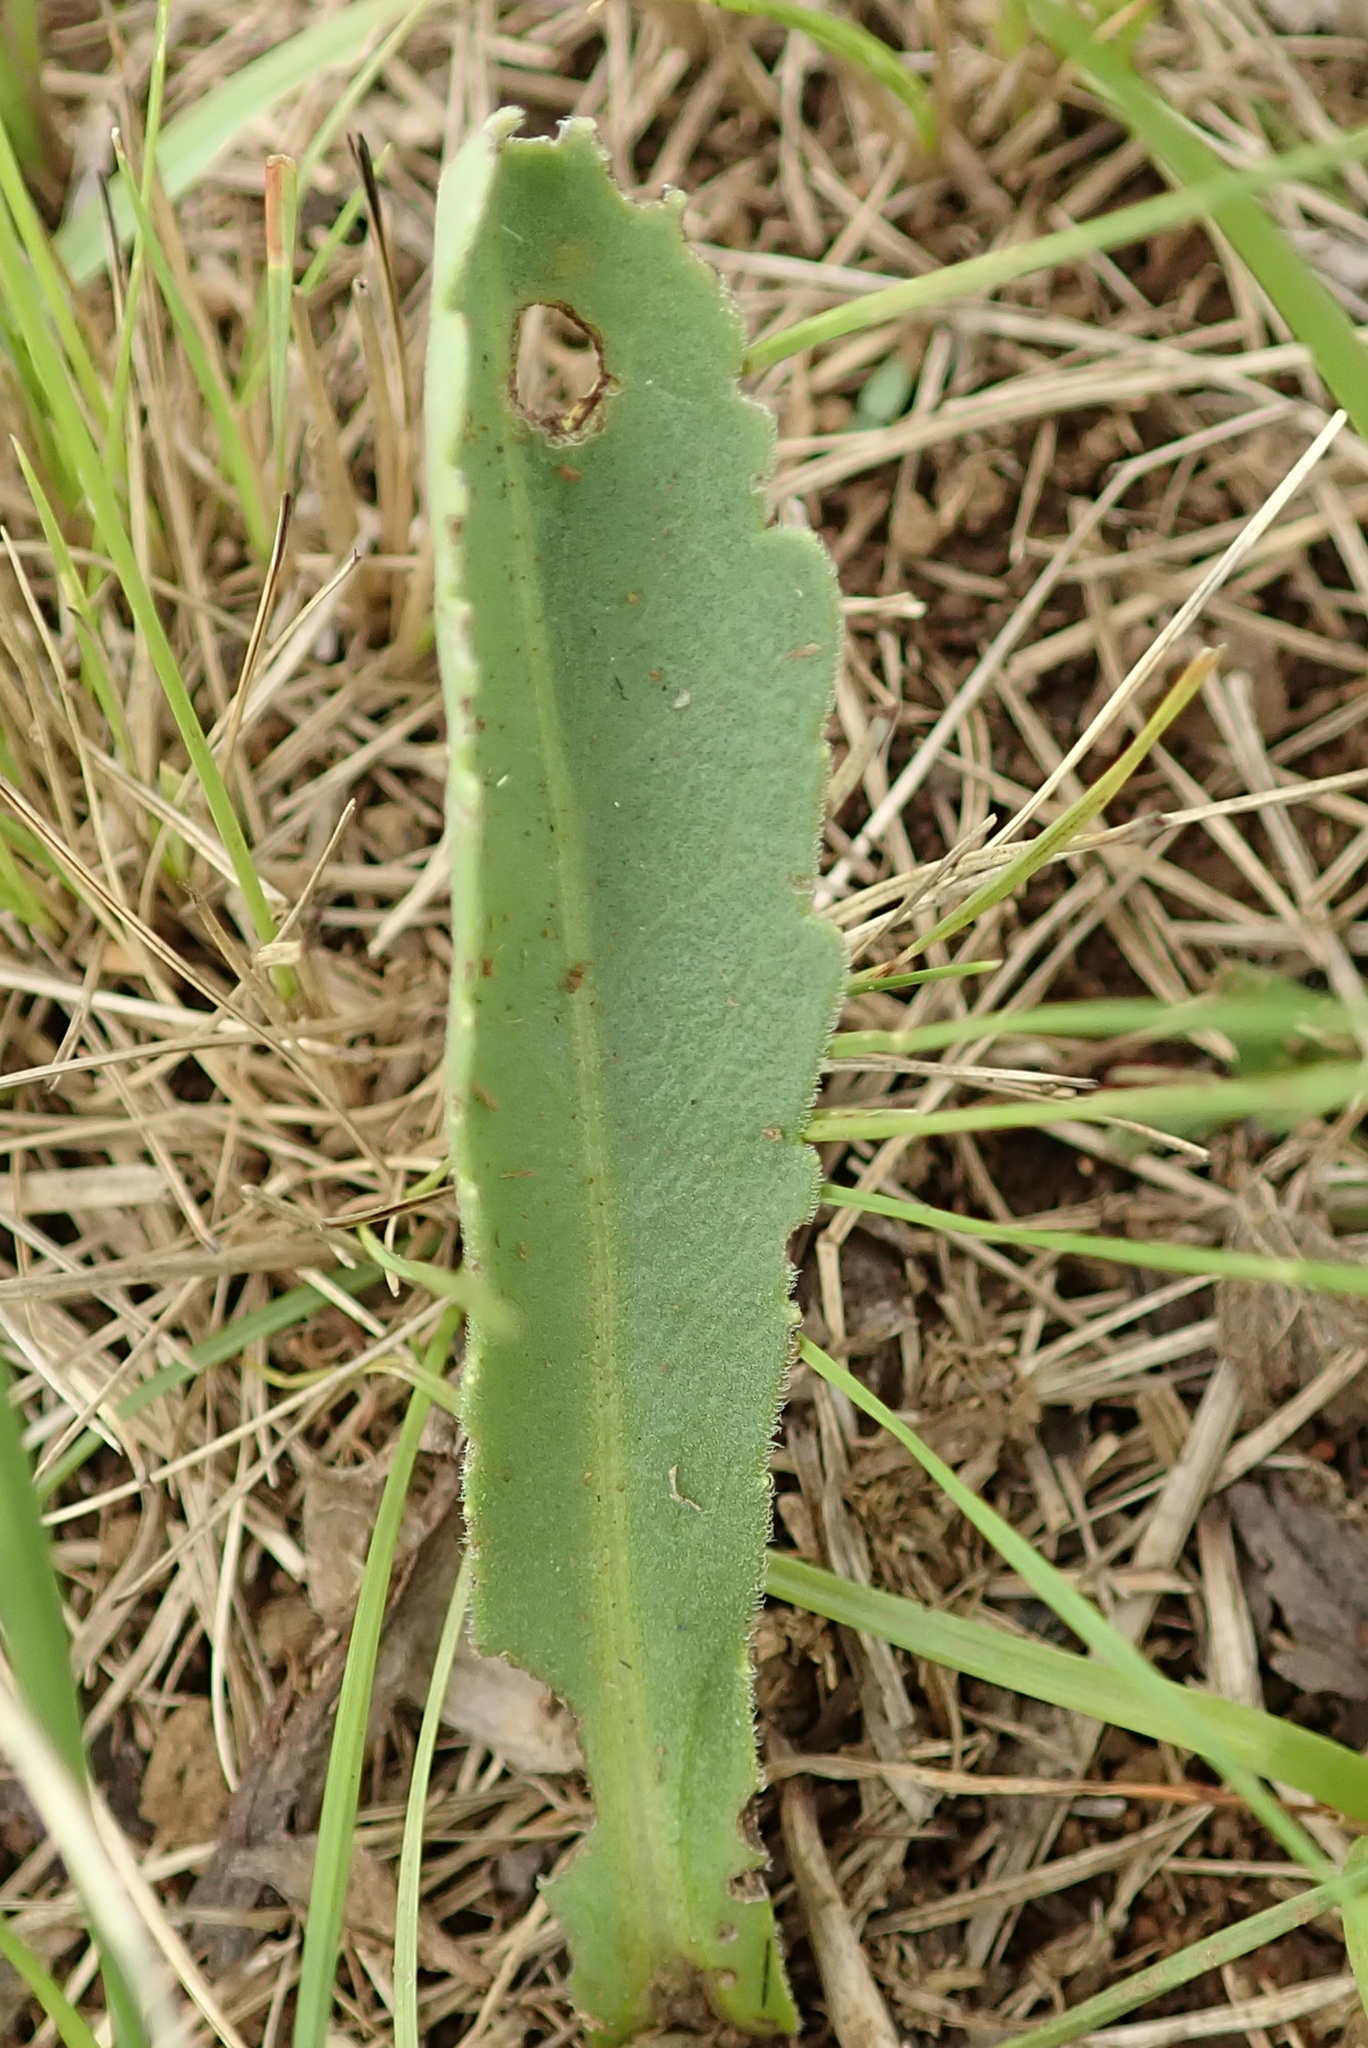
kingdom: Plantae
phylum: Tracheophyta
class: Magnoliopsida
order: Asterales
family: Asteraceae
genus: Erigeron
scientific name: Erigeron primulifolius
